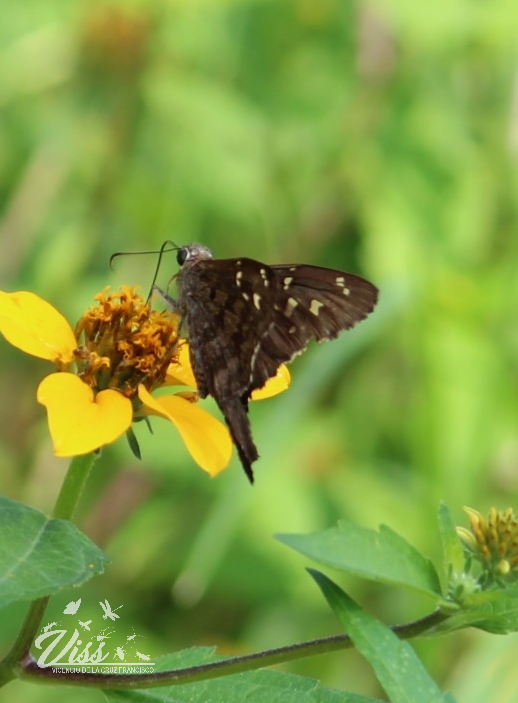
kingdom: Animalia
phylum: Arthropoda
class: Insecta
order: Lepidoptera
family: Hesperiidae
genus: Thorybes
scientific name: Thorybes
